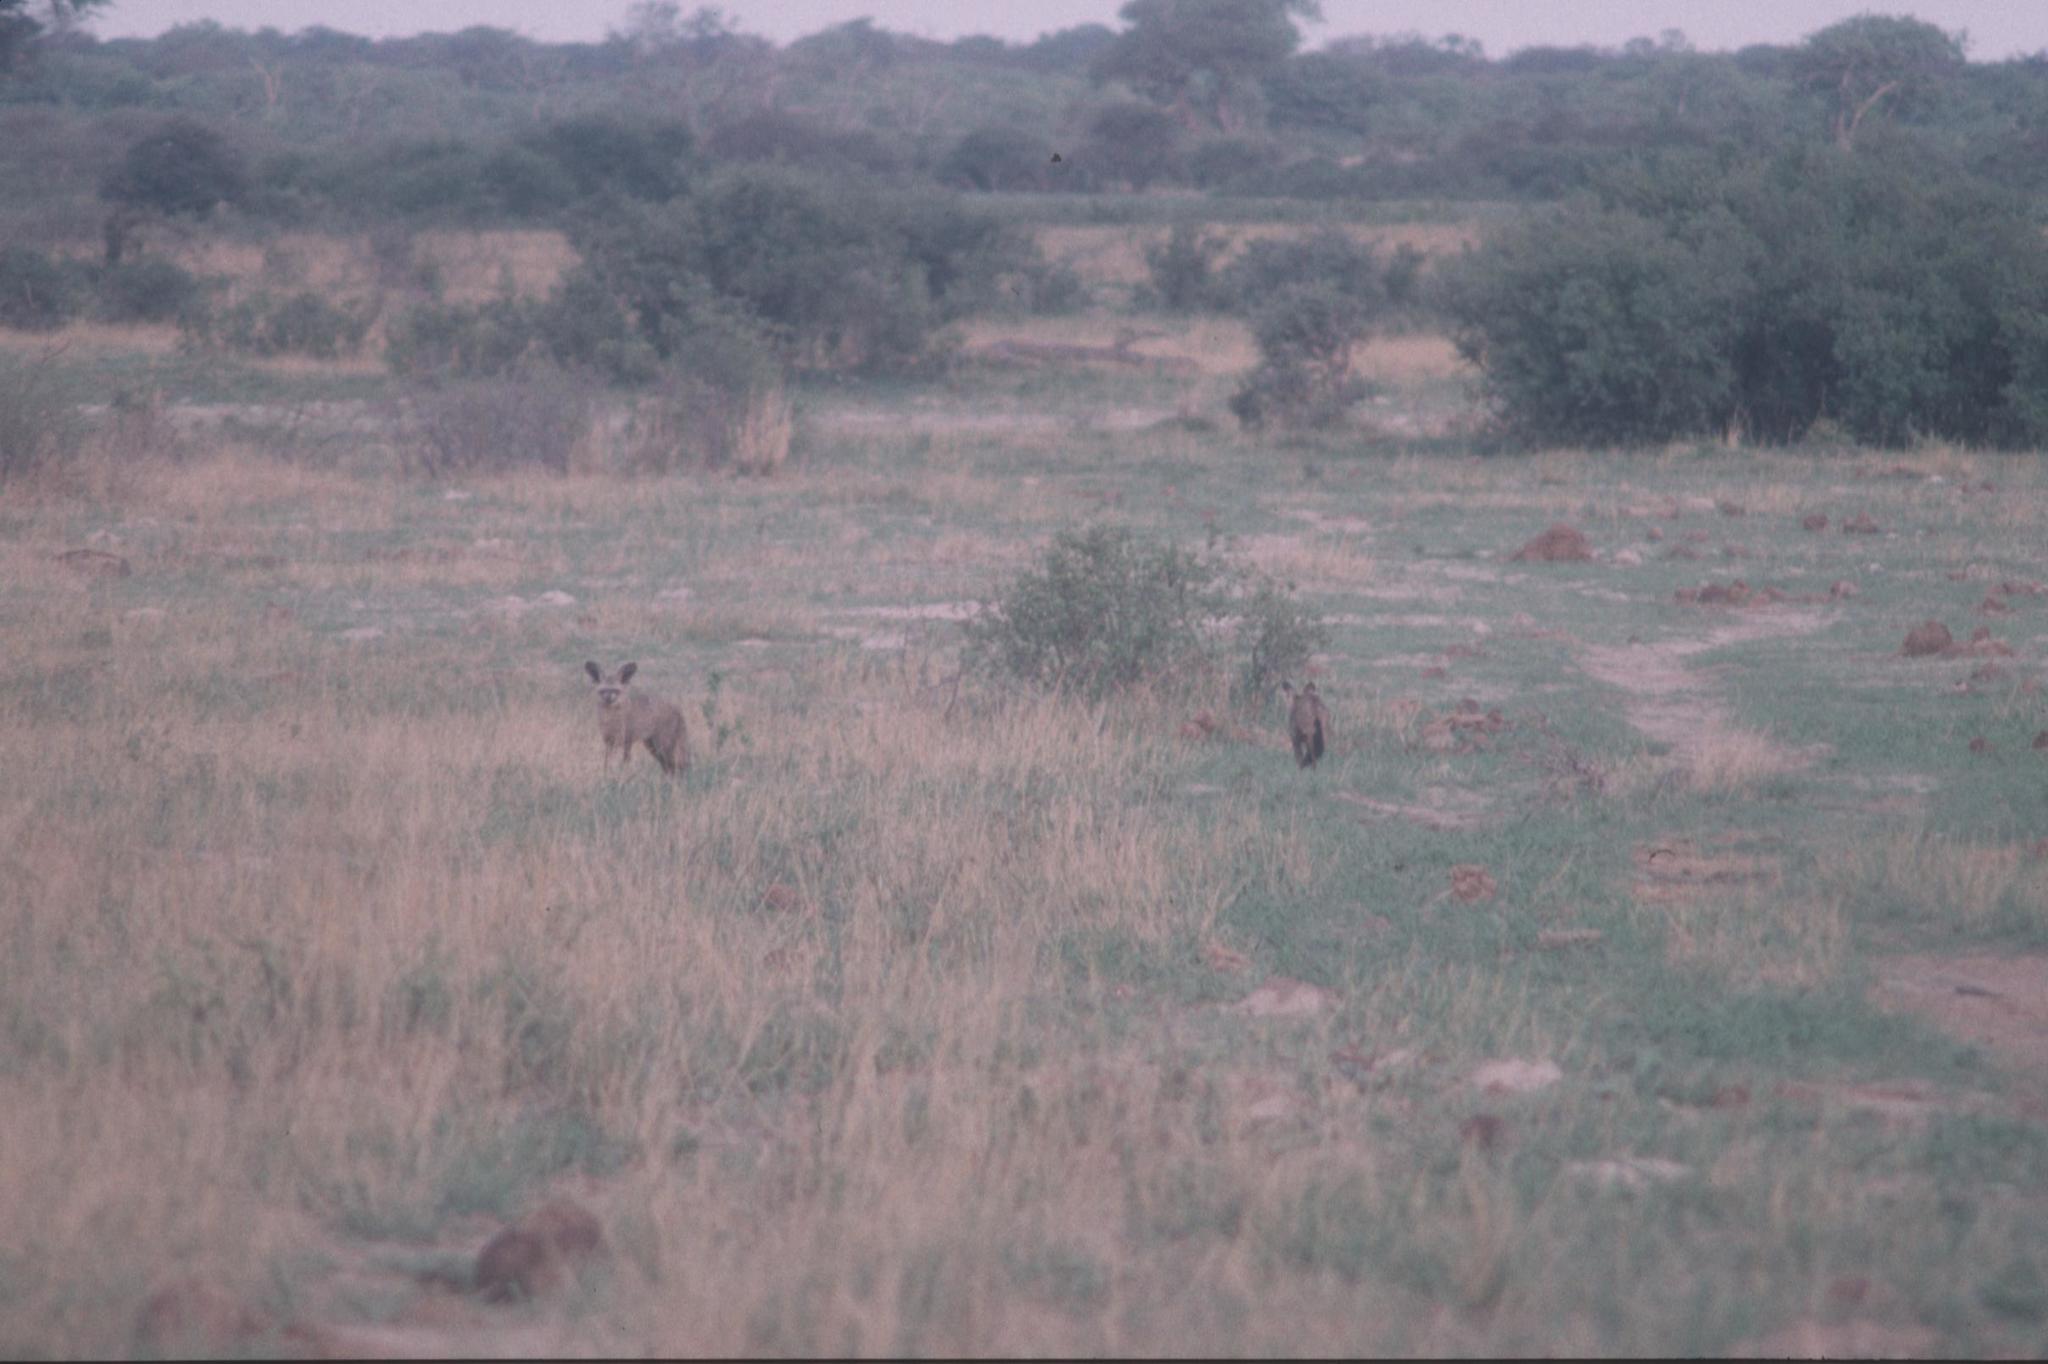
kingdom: Animalia
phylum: Chordata
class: Mammalia
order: Carnivora
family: Canidae
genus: Otocyon
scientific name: Otocyon megalotis
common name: Bat-eared fox
